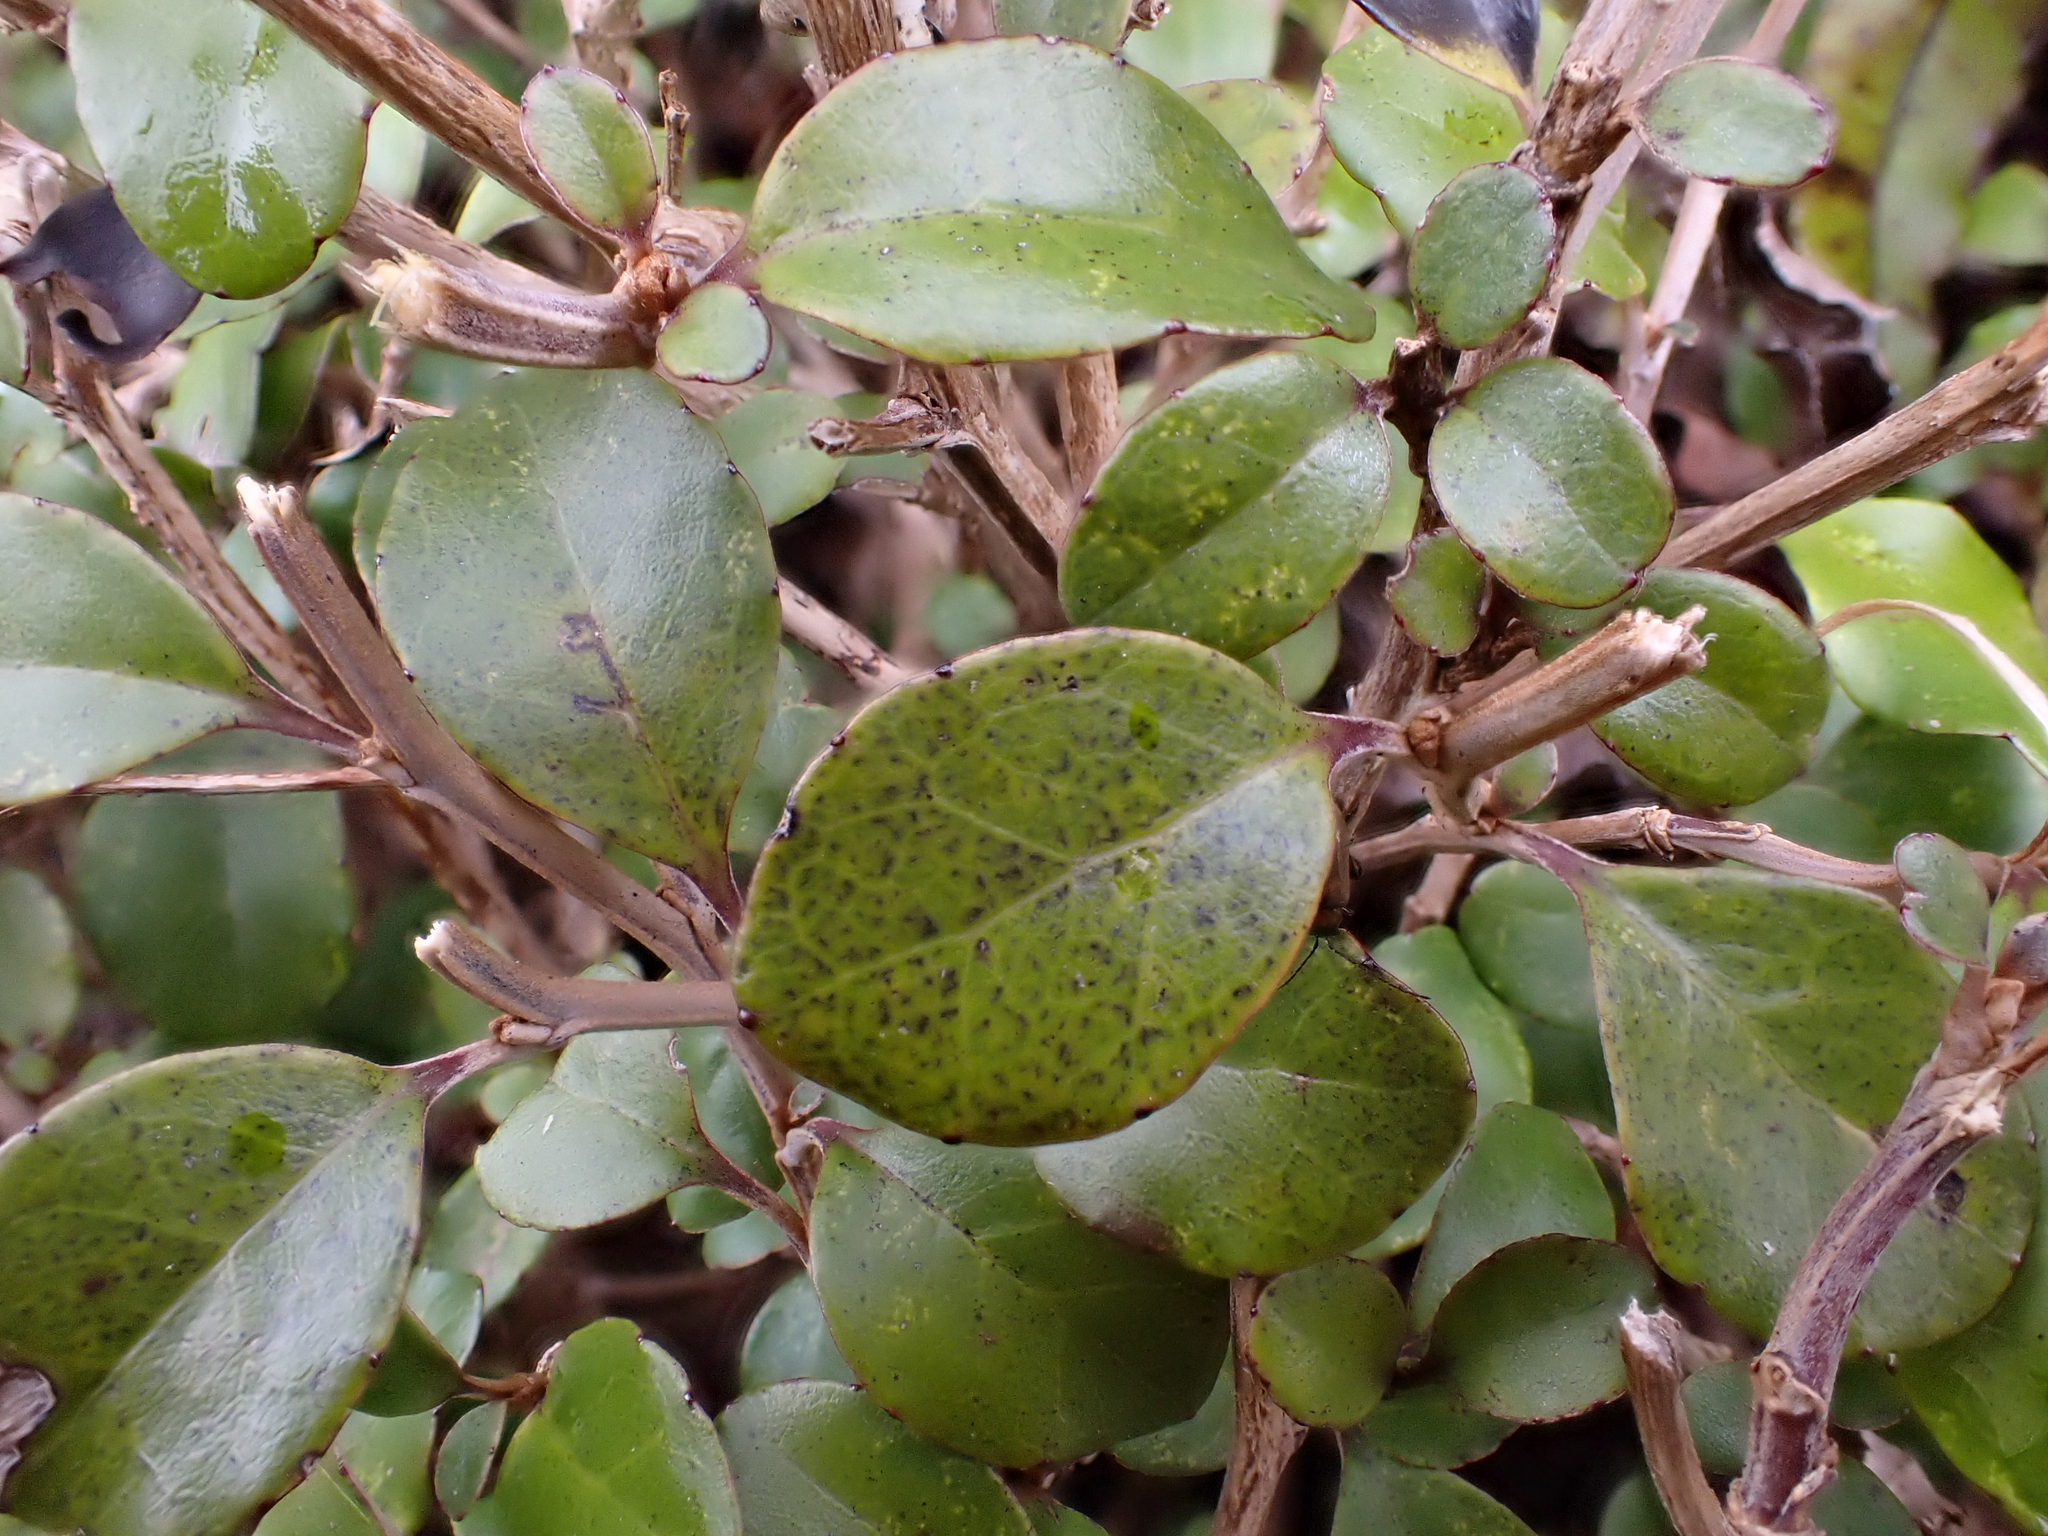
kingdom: Plantae
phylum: Tracheophyta
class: Magnoliopsida
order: Asterales
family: Asteraceae
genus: Olearia
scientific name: Olearia quinquevulnera
